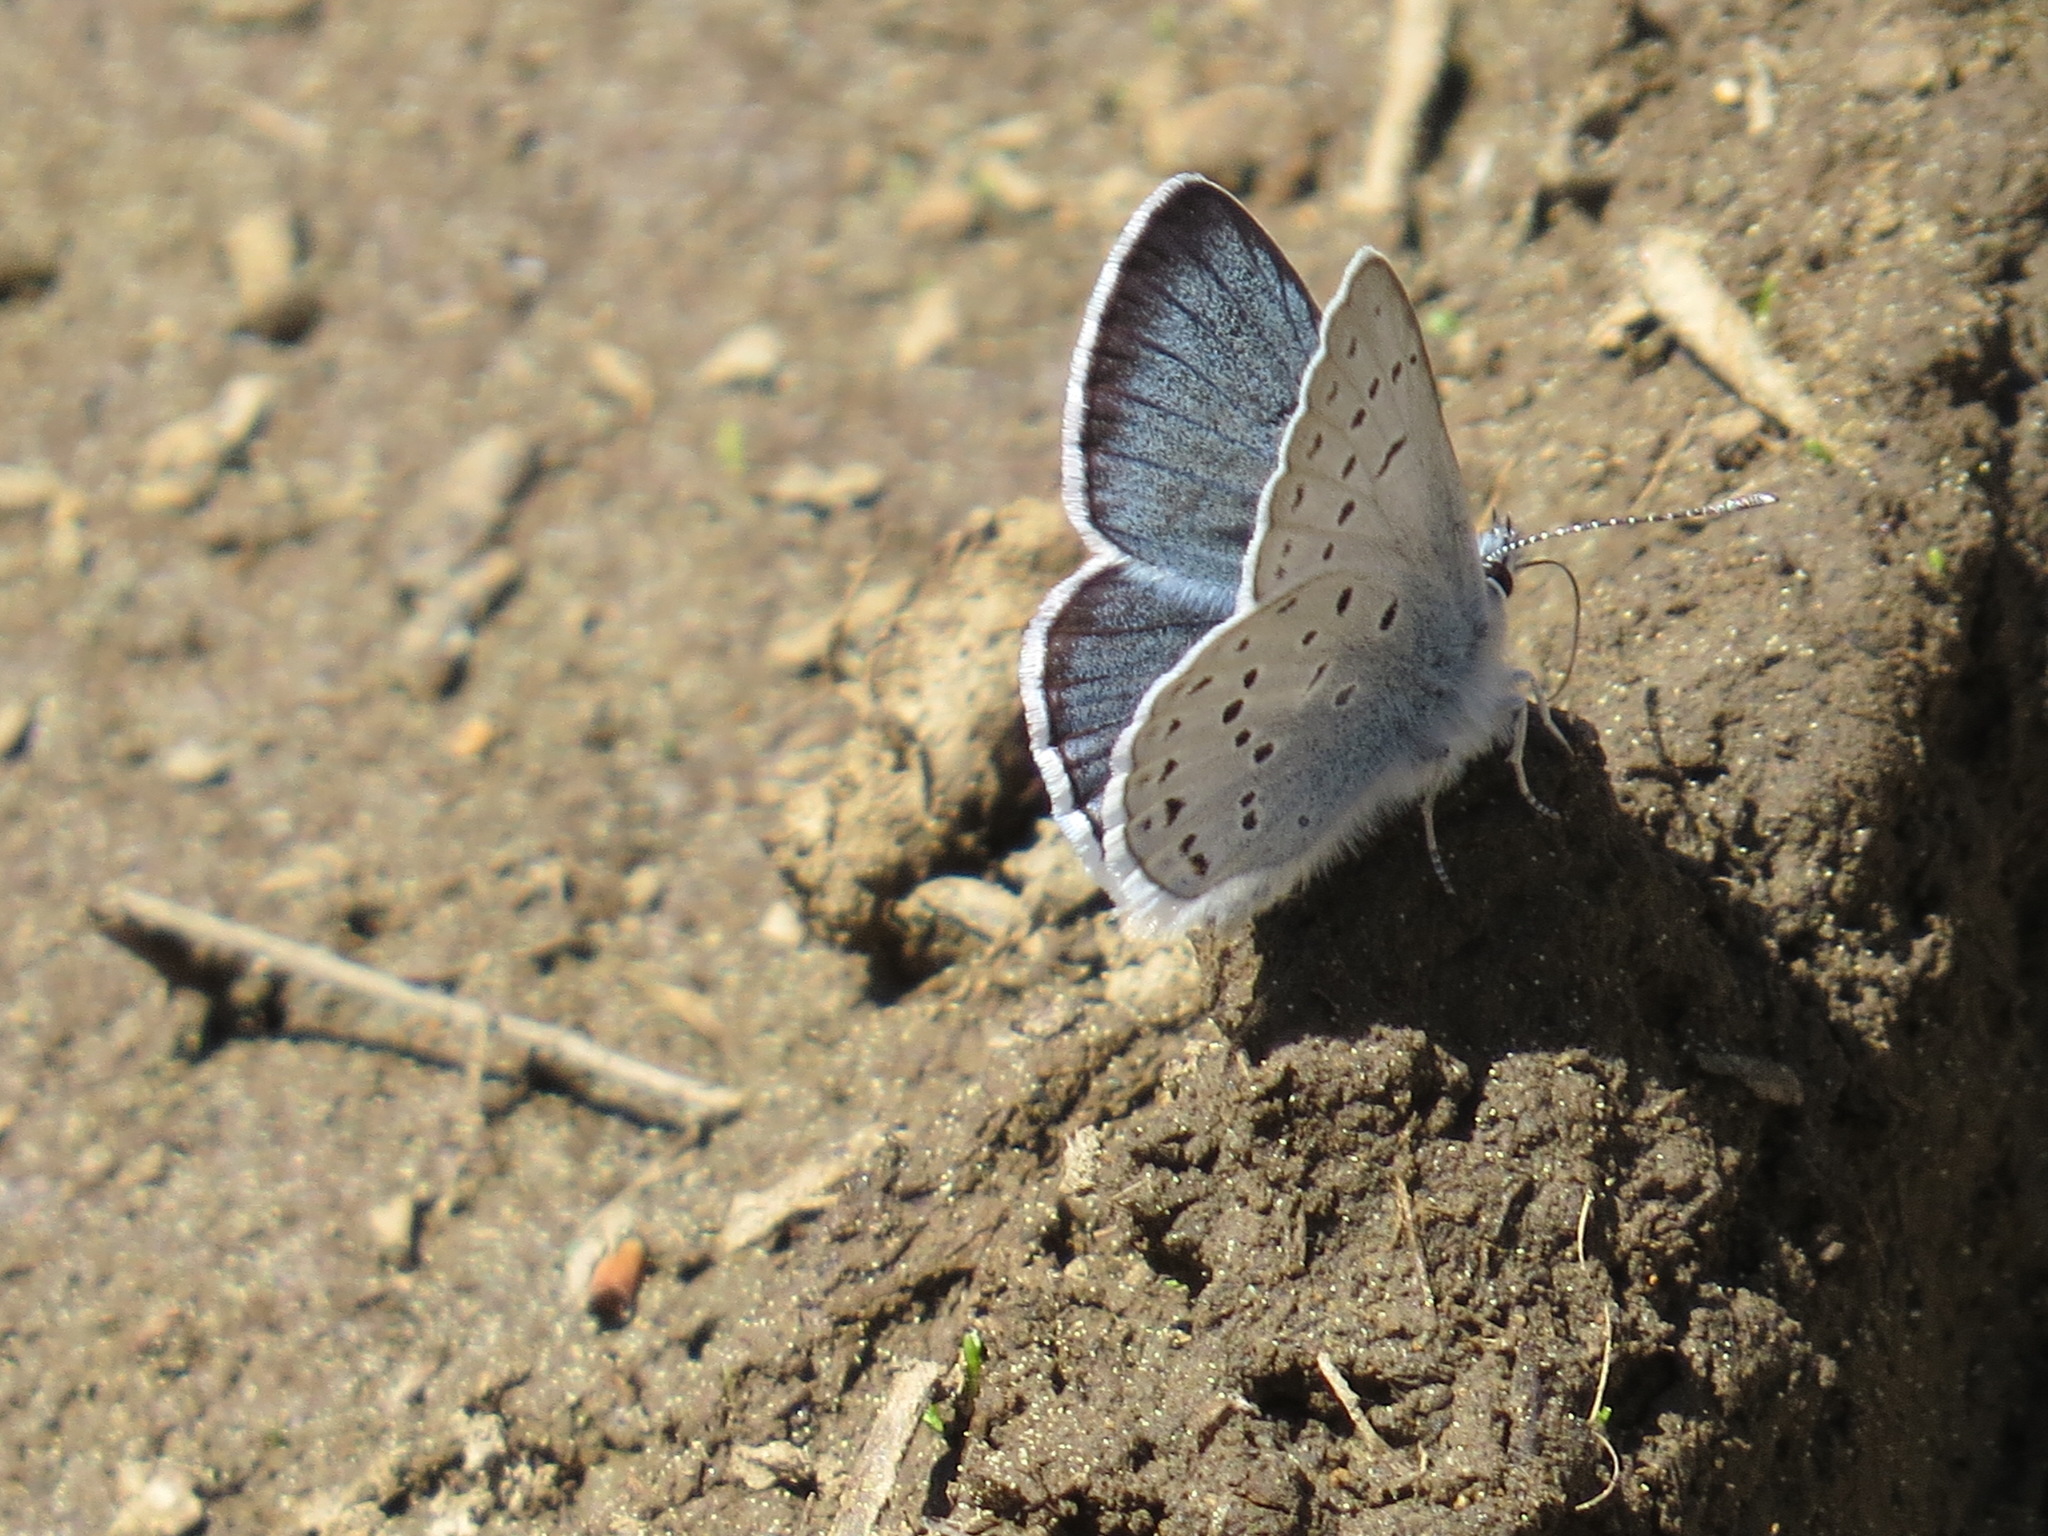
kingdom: Animalia
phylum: Arthropoda
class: Insecta
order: Lepidoptera
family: Lycaenidae
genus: Icaricia
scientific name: Icaricia saepiolus
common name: Greenish blue
